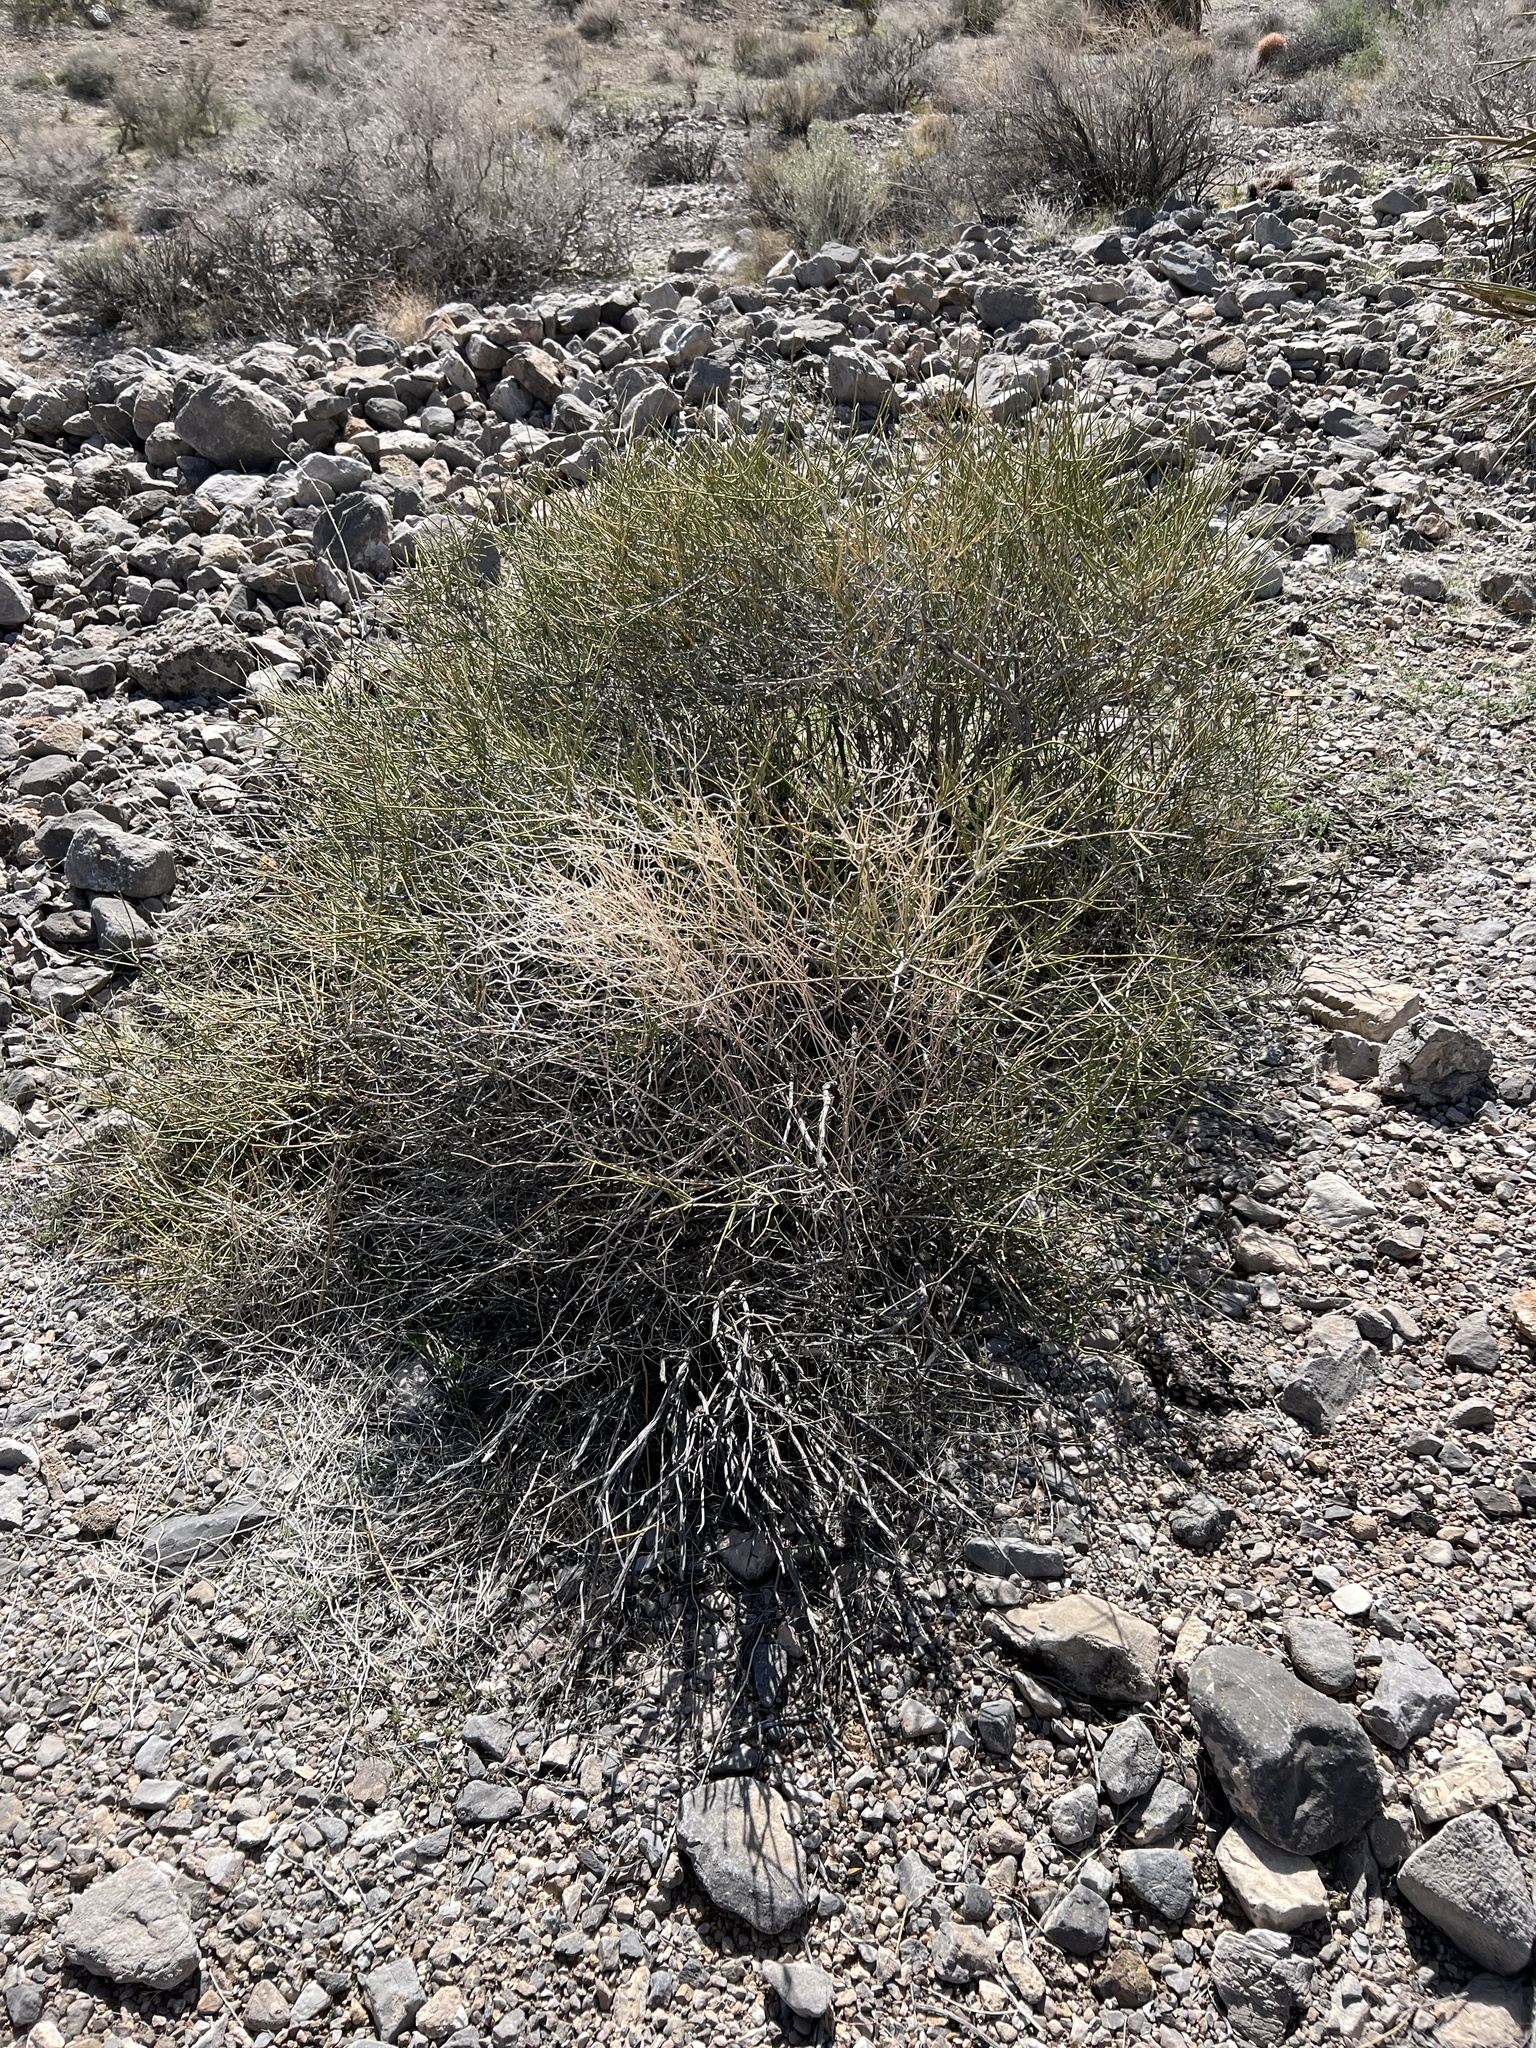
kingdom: Plantae
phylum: Tracheophyta
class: Gnetopsida
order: Ephedrales
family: Ephedraceae
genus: Ephedra
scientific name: Ephedra nevadensis
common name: Gray ephedra
